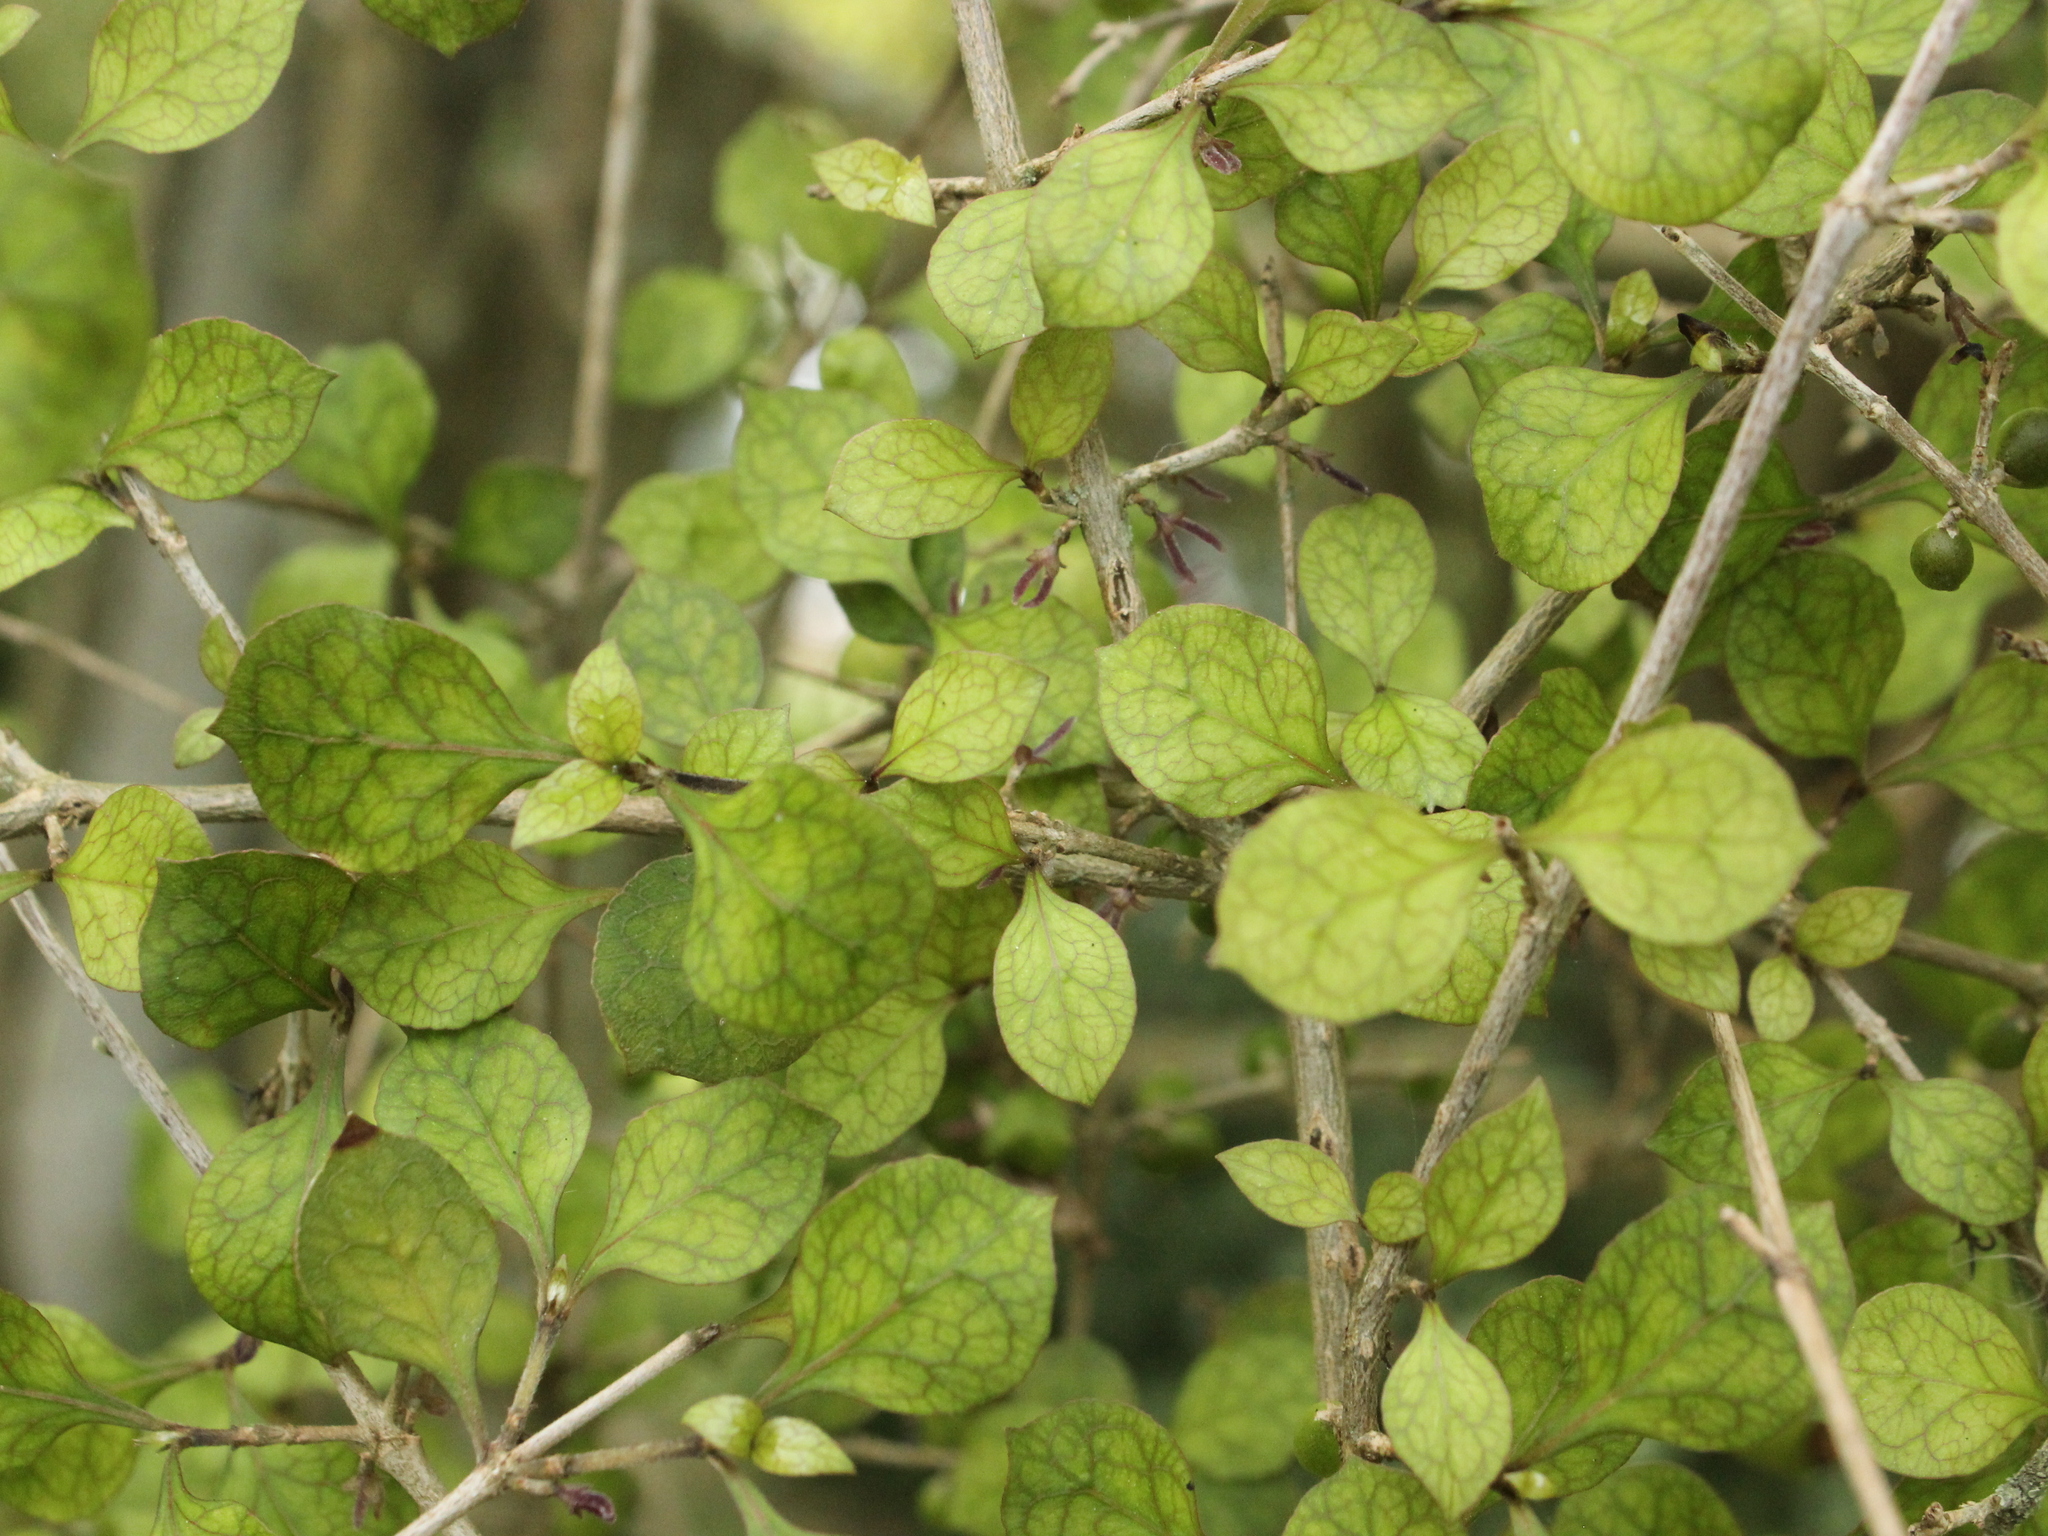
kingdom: Plantae
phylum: Tracheophyta
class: Magnoliopsida
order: Gentianales
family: Rubiaceae
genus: Coprosma
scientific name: Coprosma areolata
